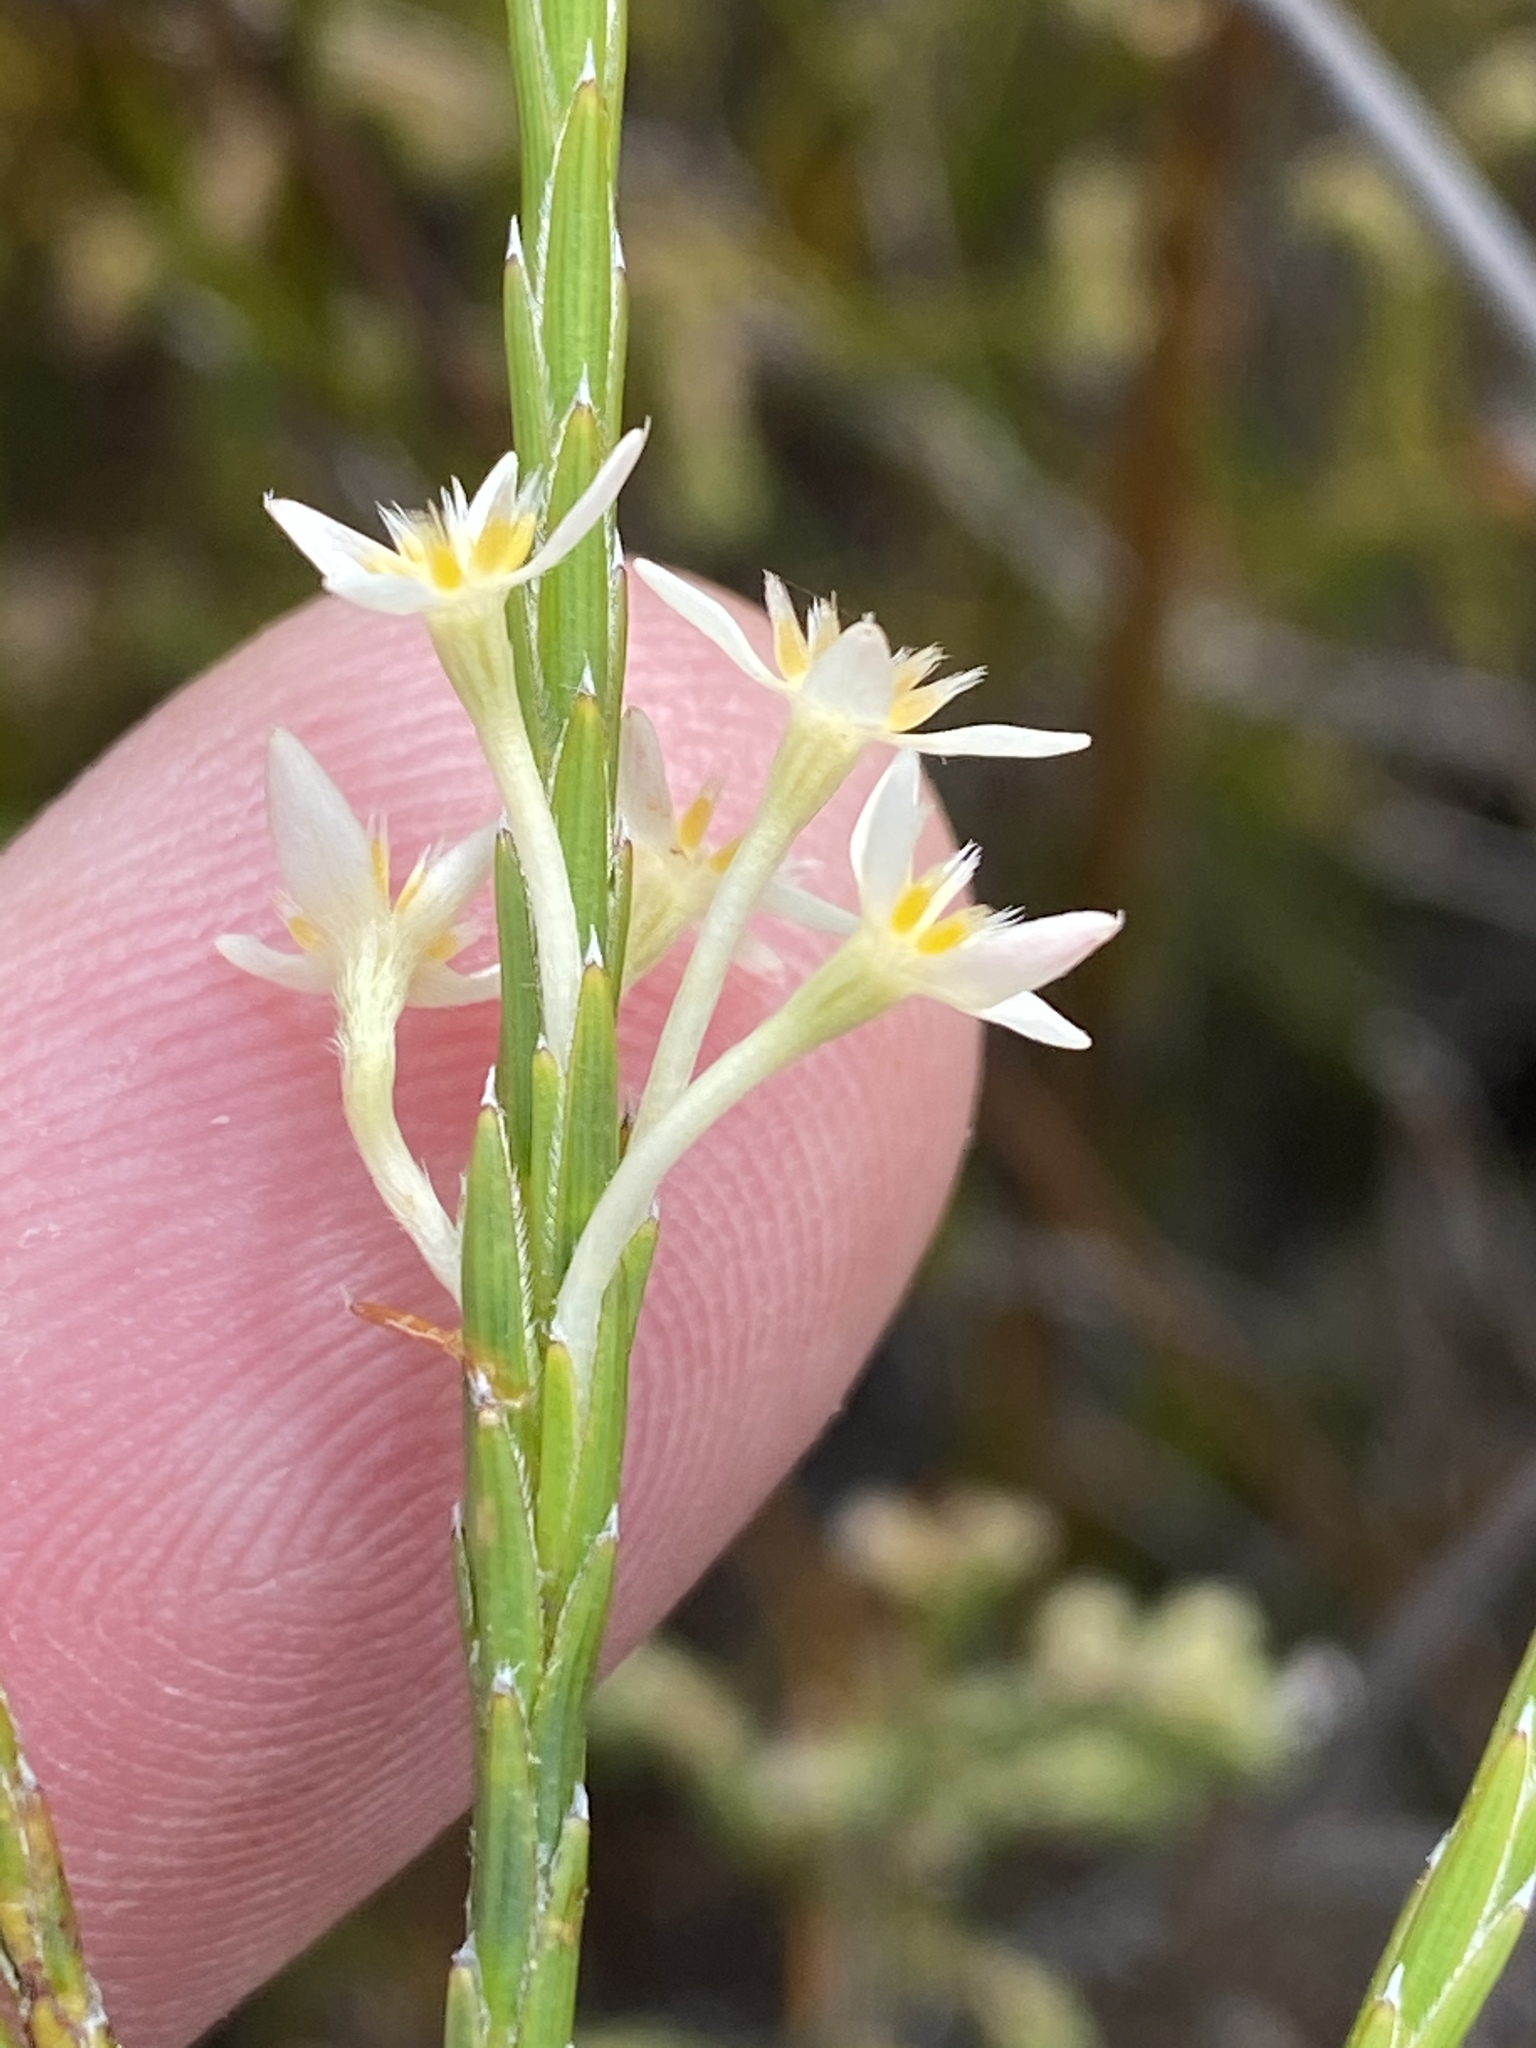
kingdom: Plantae
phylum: Tracheophyta
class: Magnoliopsida
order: Malvales
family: Thymelaeaceae
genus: Struthiola
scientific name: Struthiola ciliata
